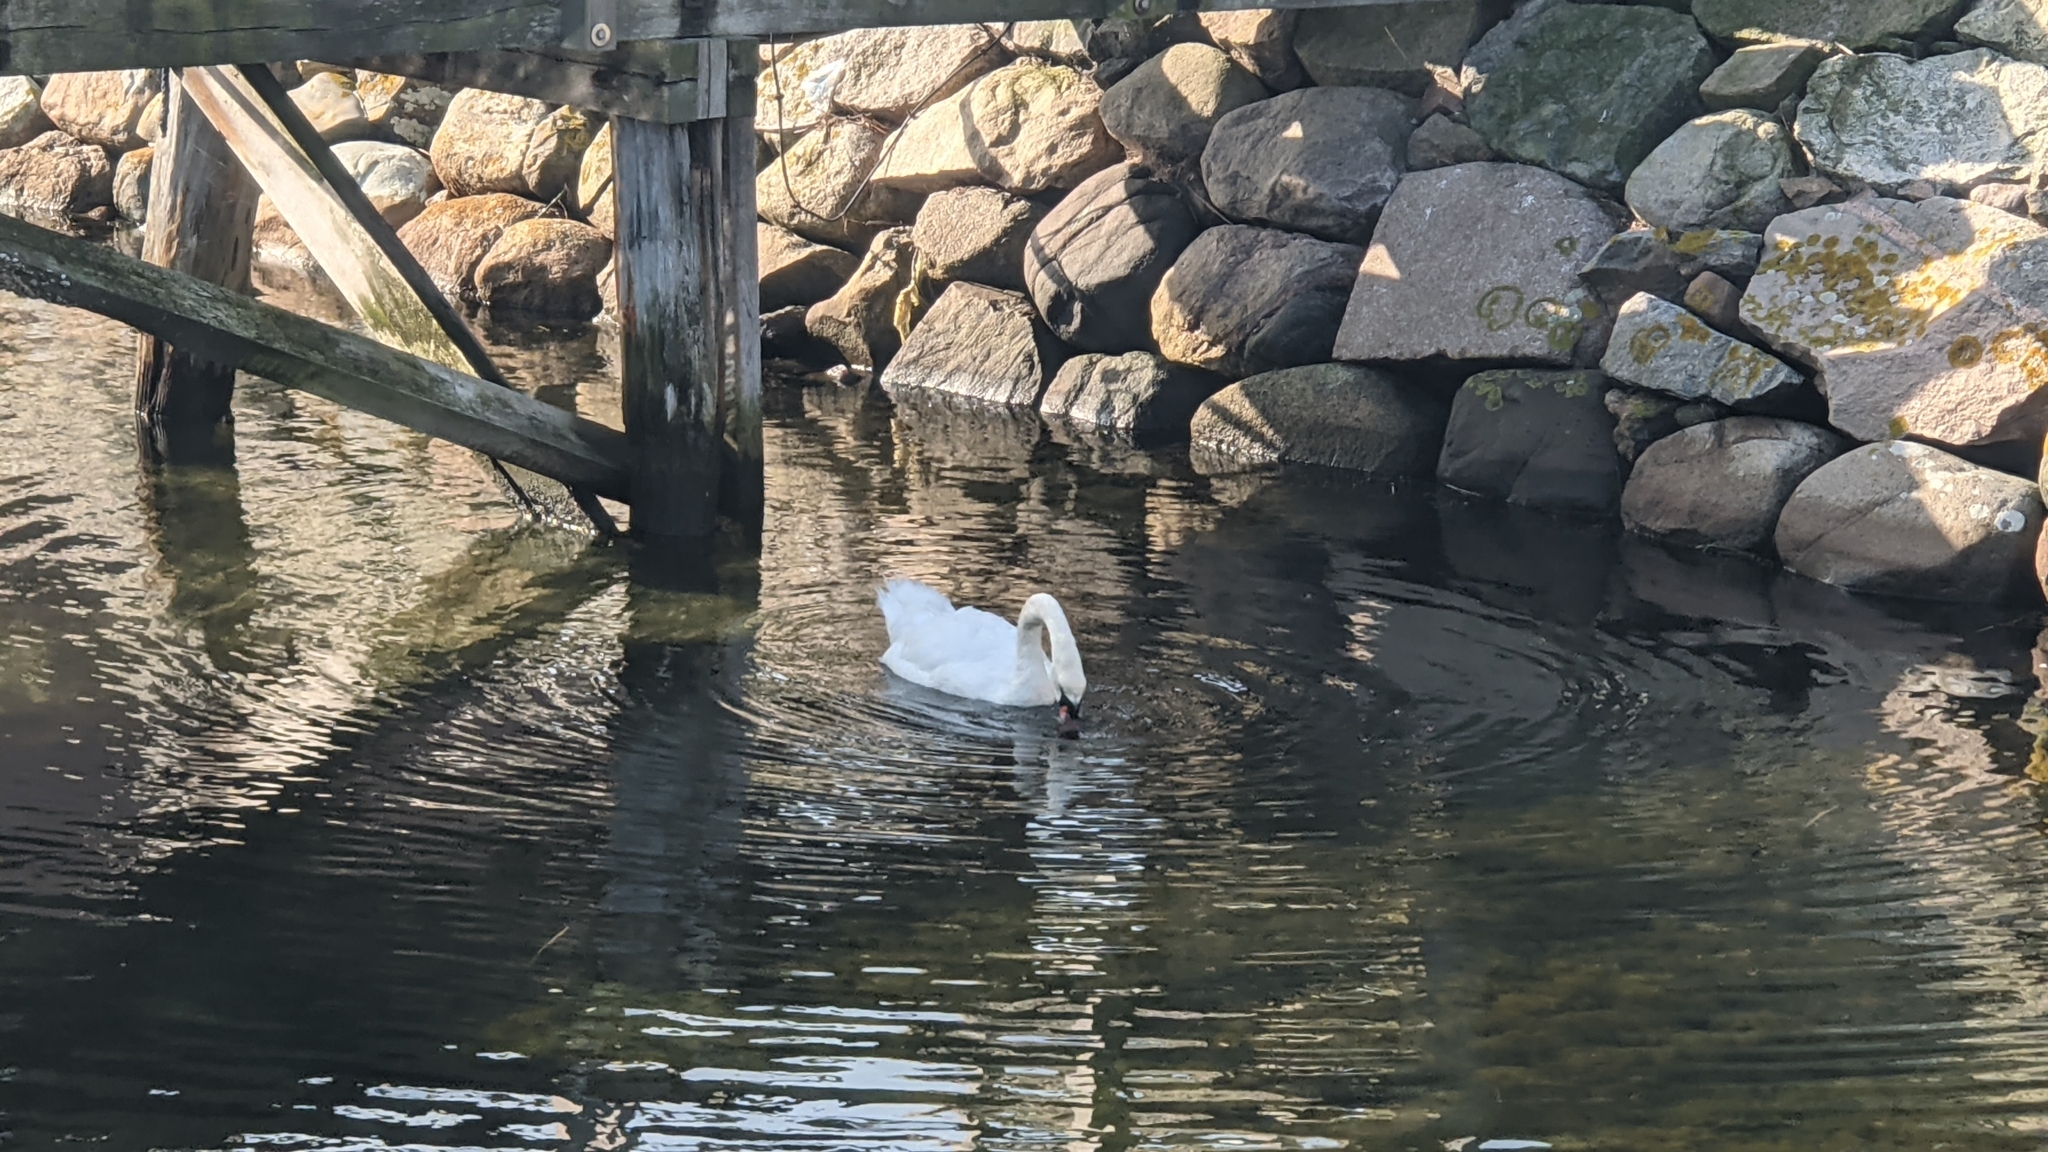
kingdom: Animalia
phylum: Chordata
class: Aves
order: Anseriformes
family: Anatidae
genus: Cygnus
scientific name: Cygnus olor
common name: Mute swan
